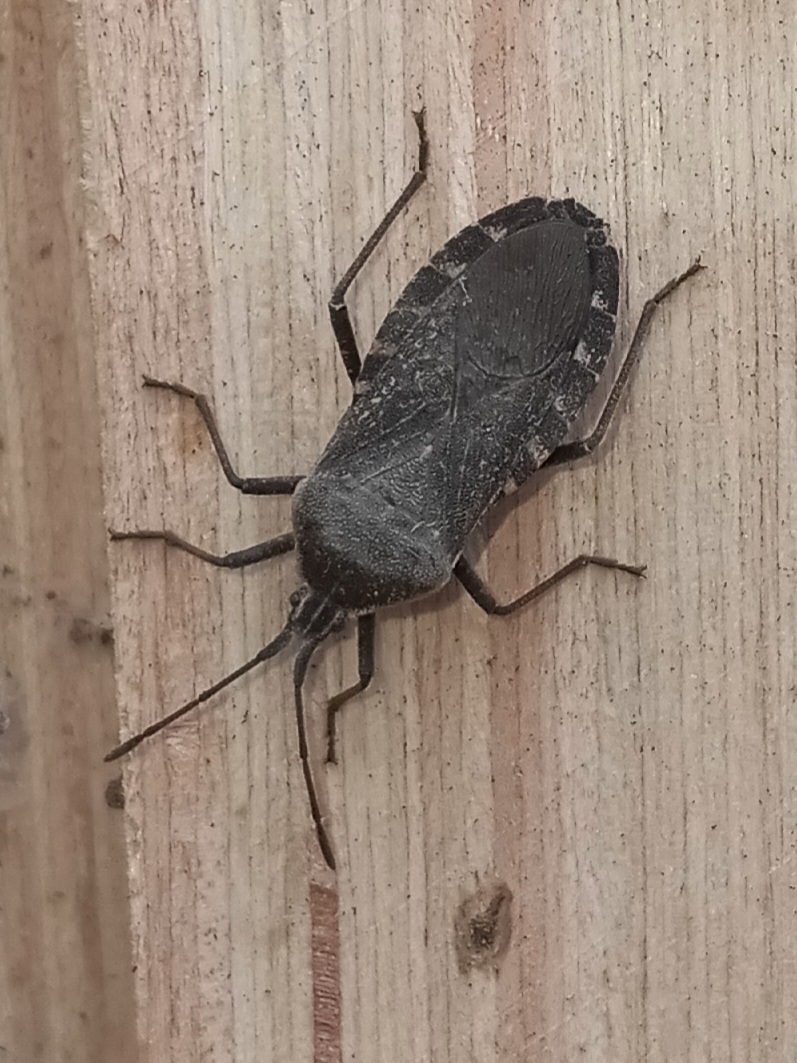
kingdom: Animalia
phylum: Arthropoda
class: Insecta
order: Hemiptera
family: Coreidae
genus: Anasa
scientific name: Anasa tristis
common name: Squash bug
